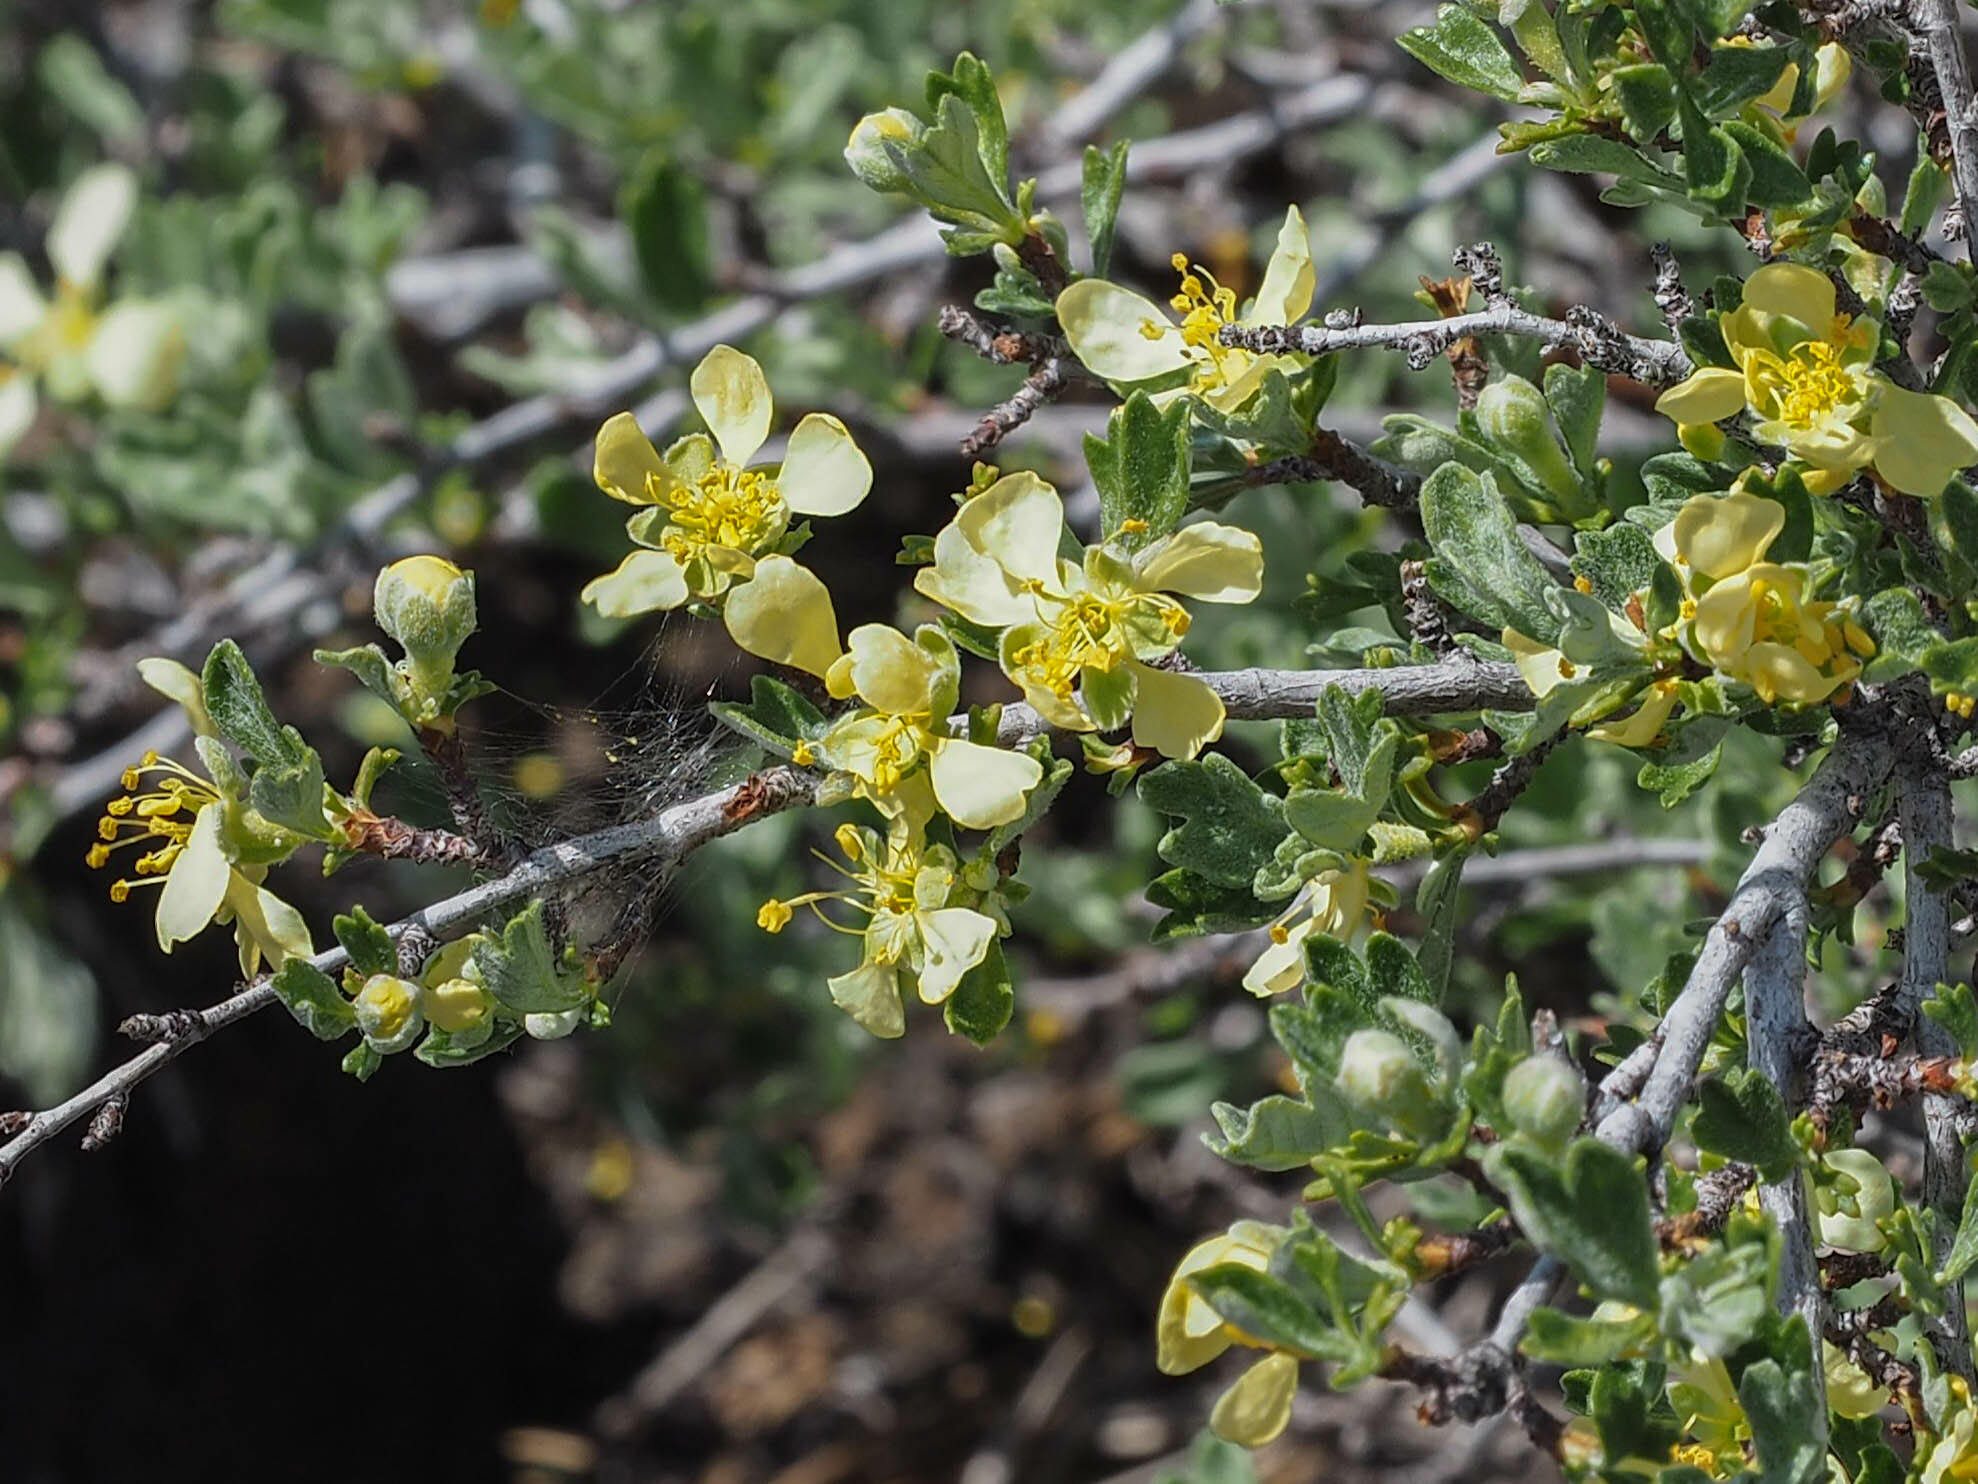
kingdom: Plantae
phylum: Tracheophyta
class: Magnoliopsida
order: Rosales
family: Rosaceae
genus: Purshia
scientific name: Purshia tridentata
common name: Antelope bitterbrush
